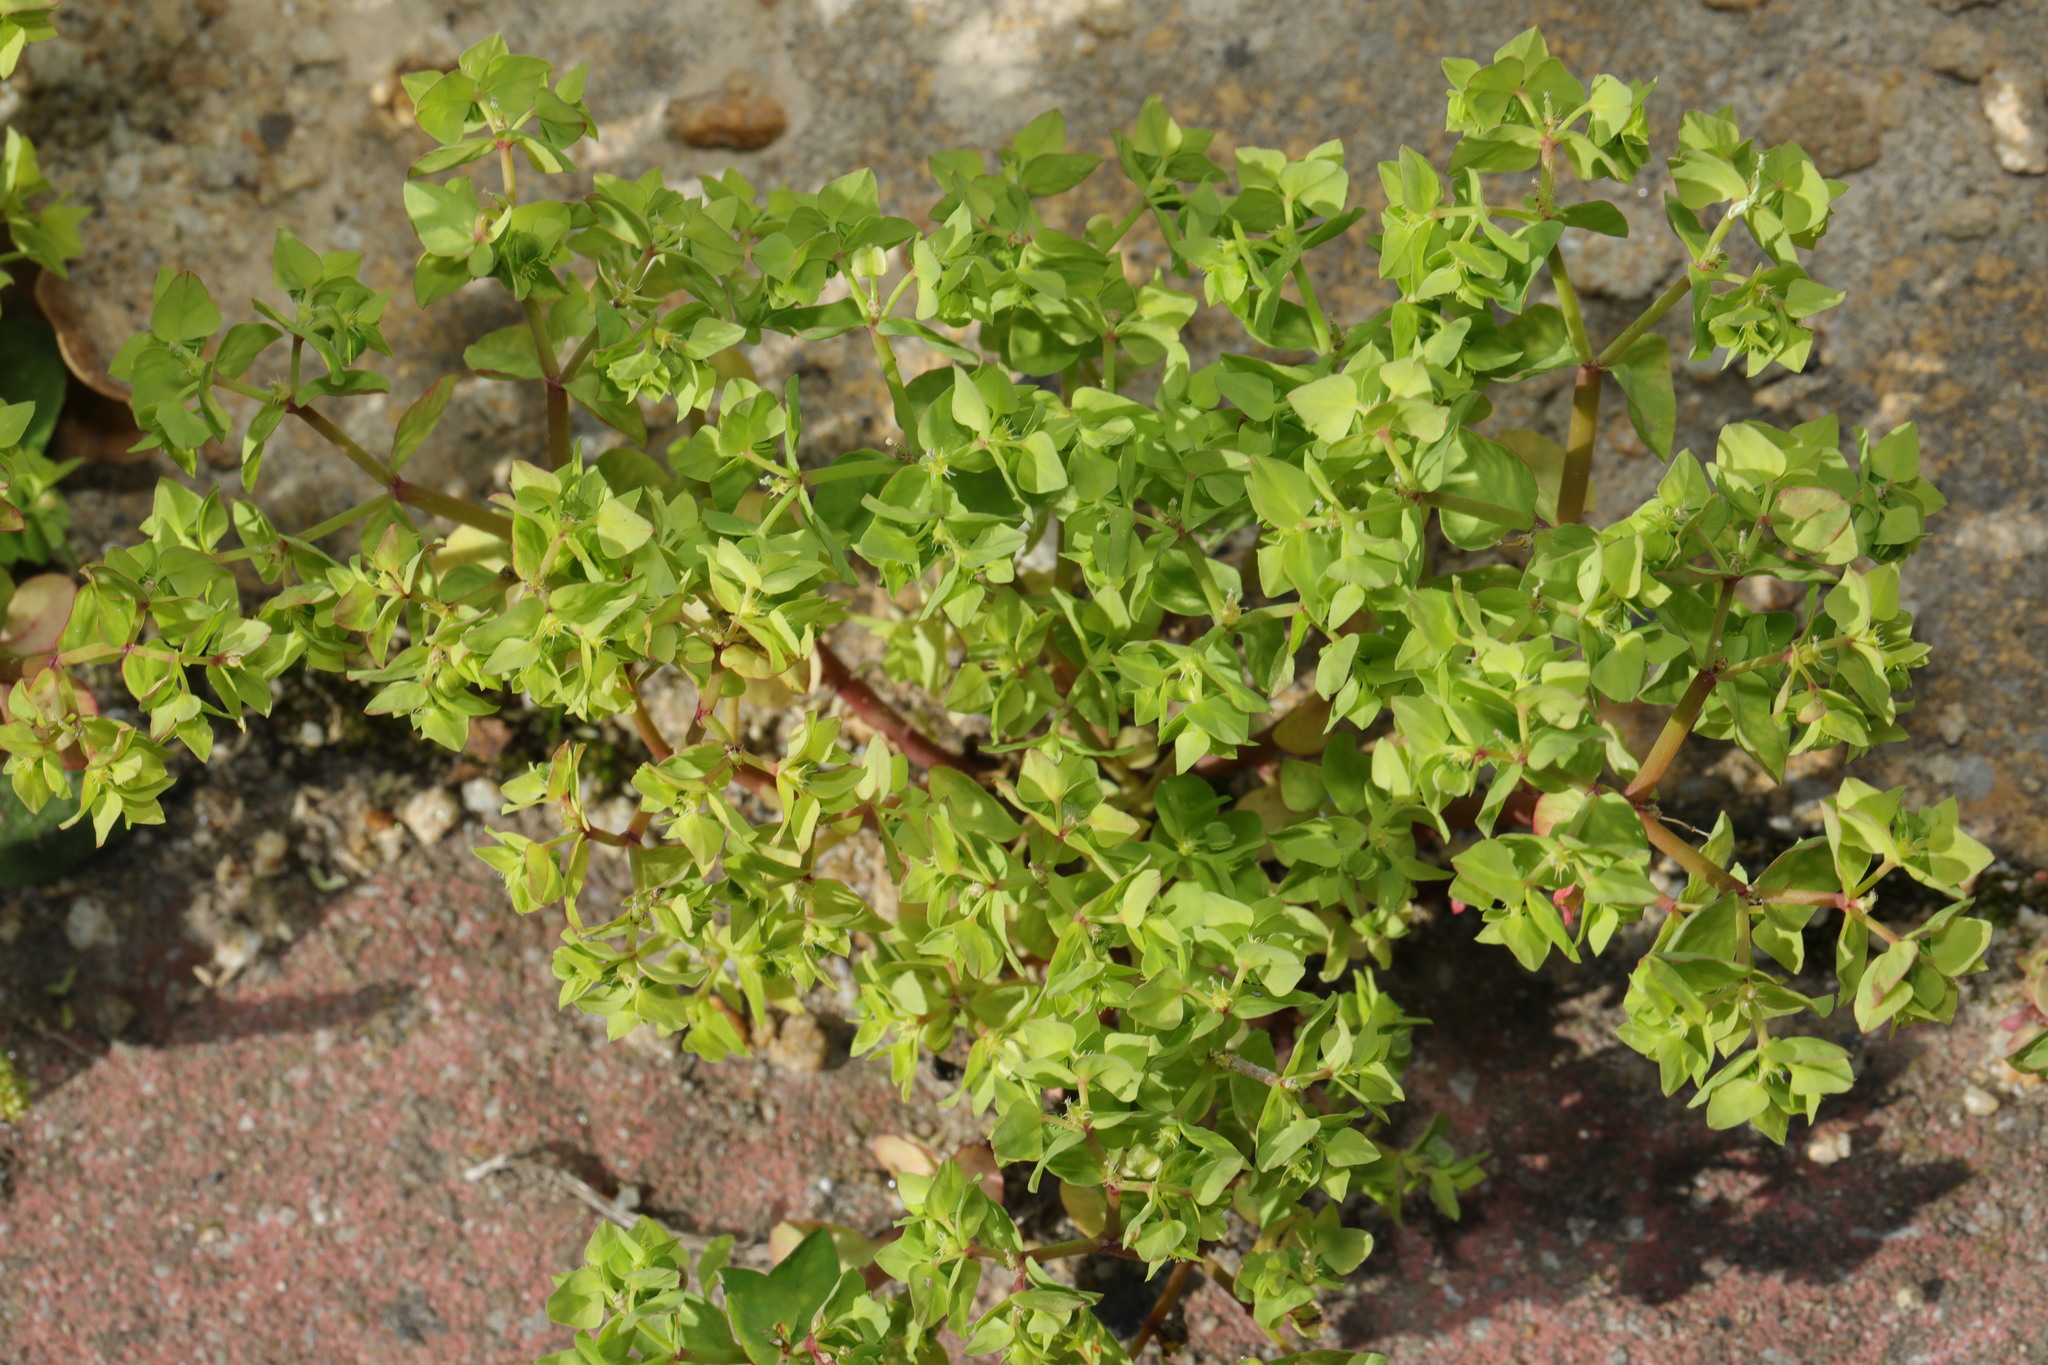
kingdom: Plantae
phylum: Tracheophyta
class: Magnoliopsida
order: Malpighiales
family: Euphorbiaceae
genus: Euphorbia
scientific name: Euphorbia peplus
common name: Petty spurge
